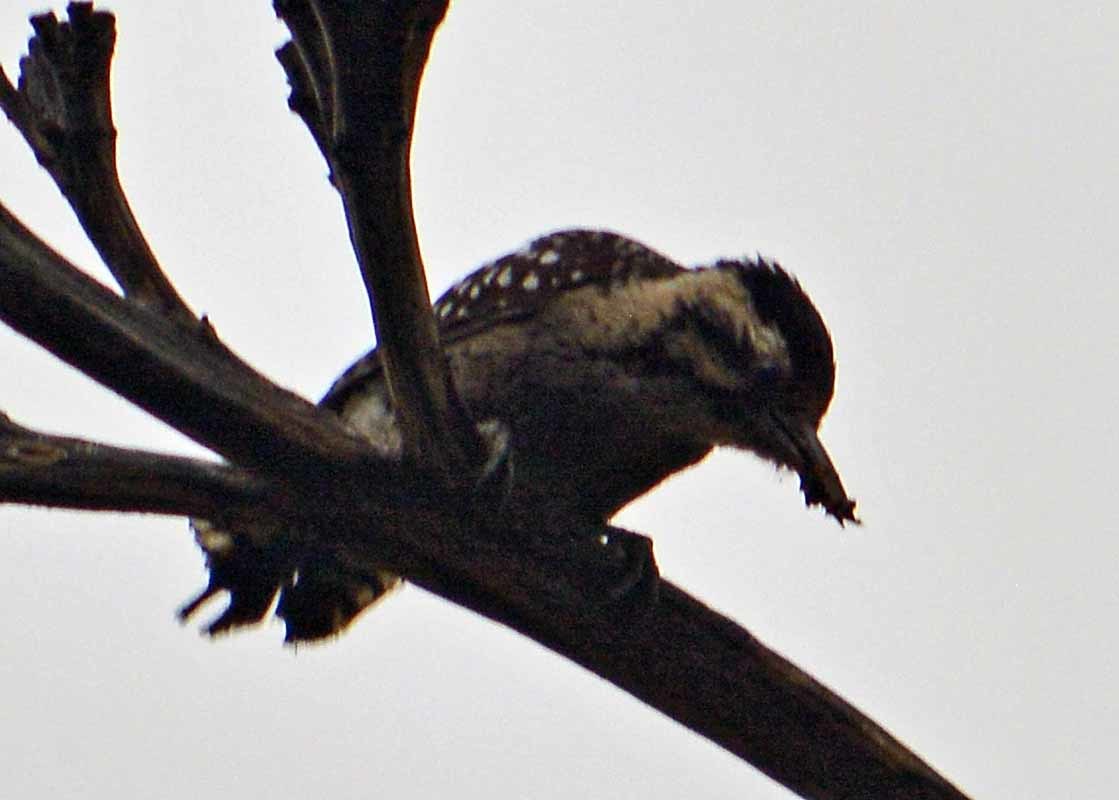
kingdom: Animalia
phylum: Chordata
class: Aves
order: Piciformes
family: Picidae
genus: Dryobates
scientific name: Dryobates scalaris
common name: Ladder-backed woodpecker
